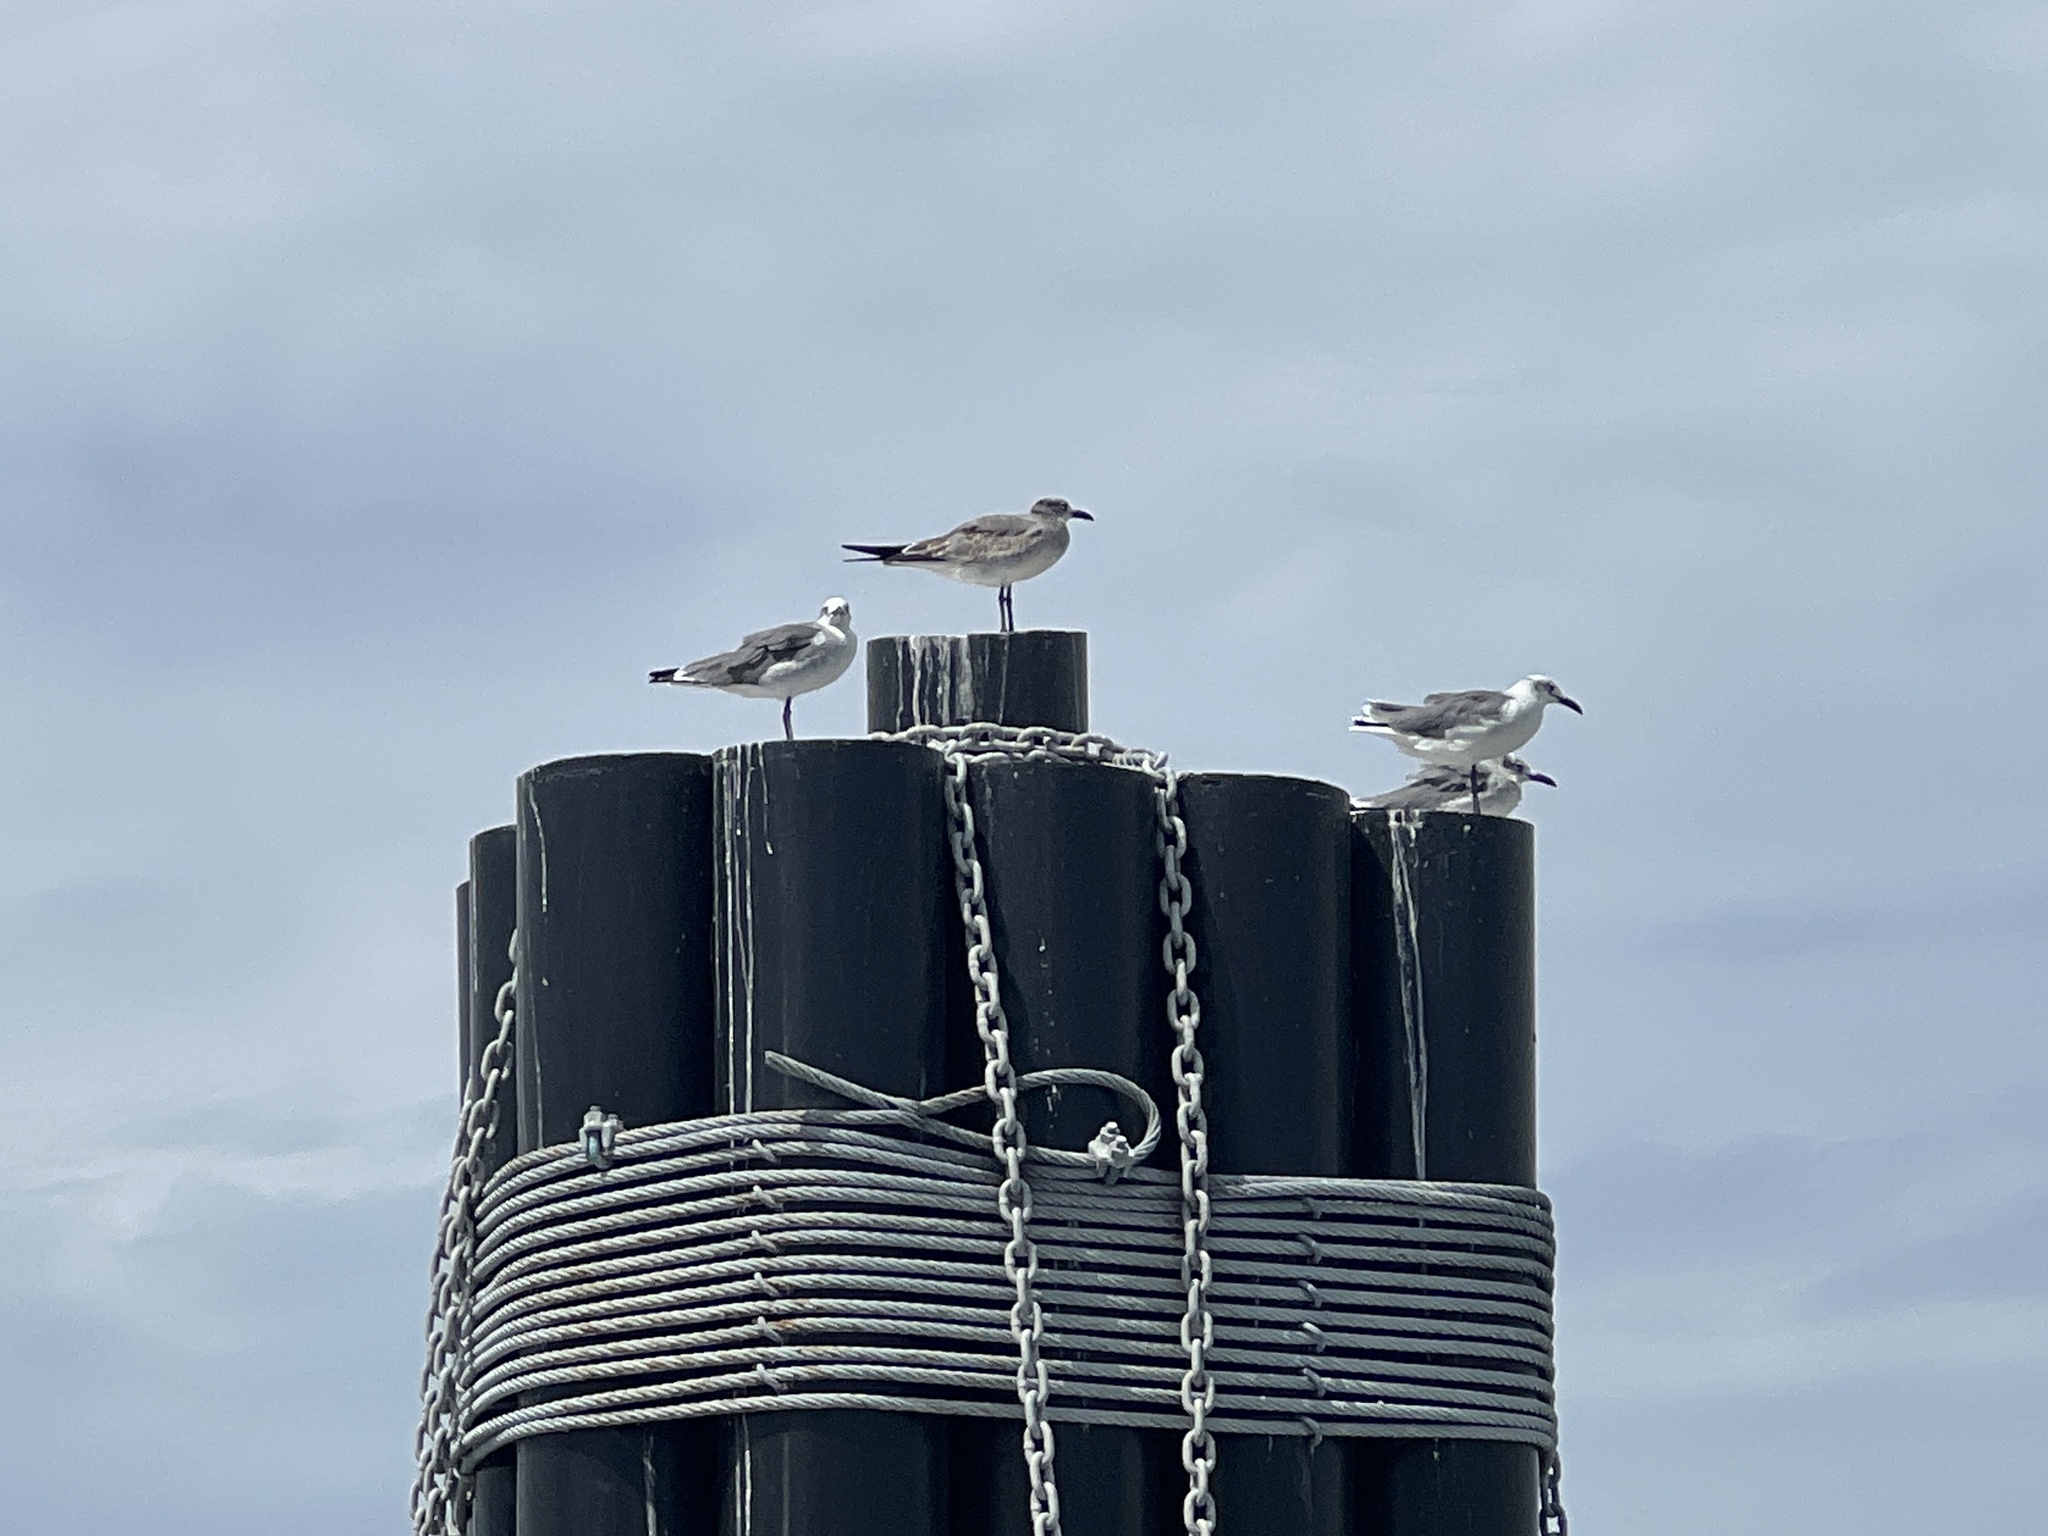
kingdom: Animalia
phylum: Chordata
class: Aves
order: Charadriiformes
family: Laridae
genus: Leucophaeus
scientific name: Leucophaeus atricilla
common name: Laughing gull
